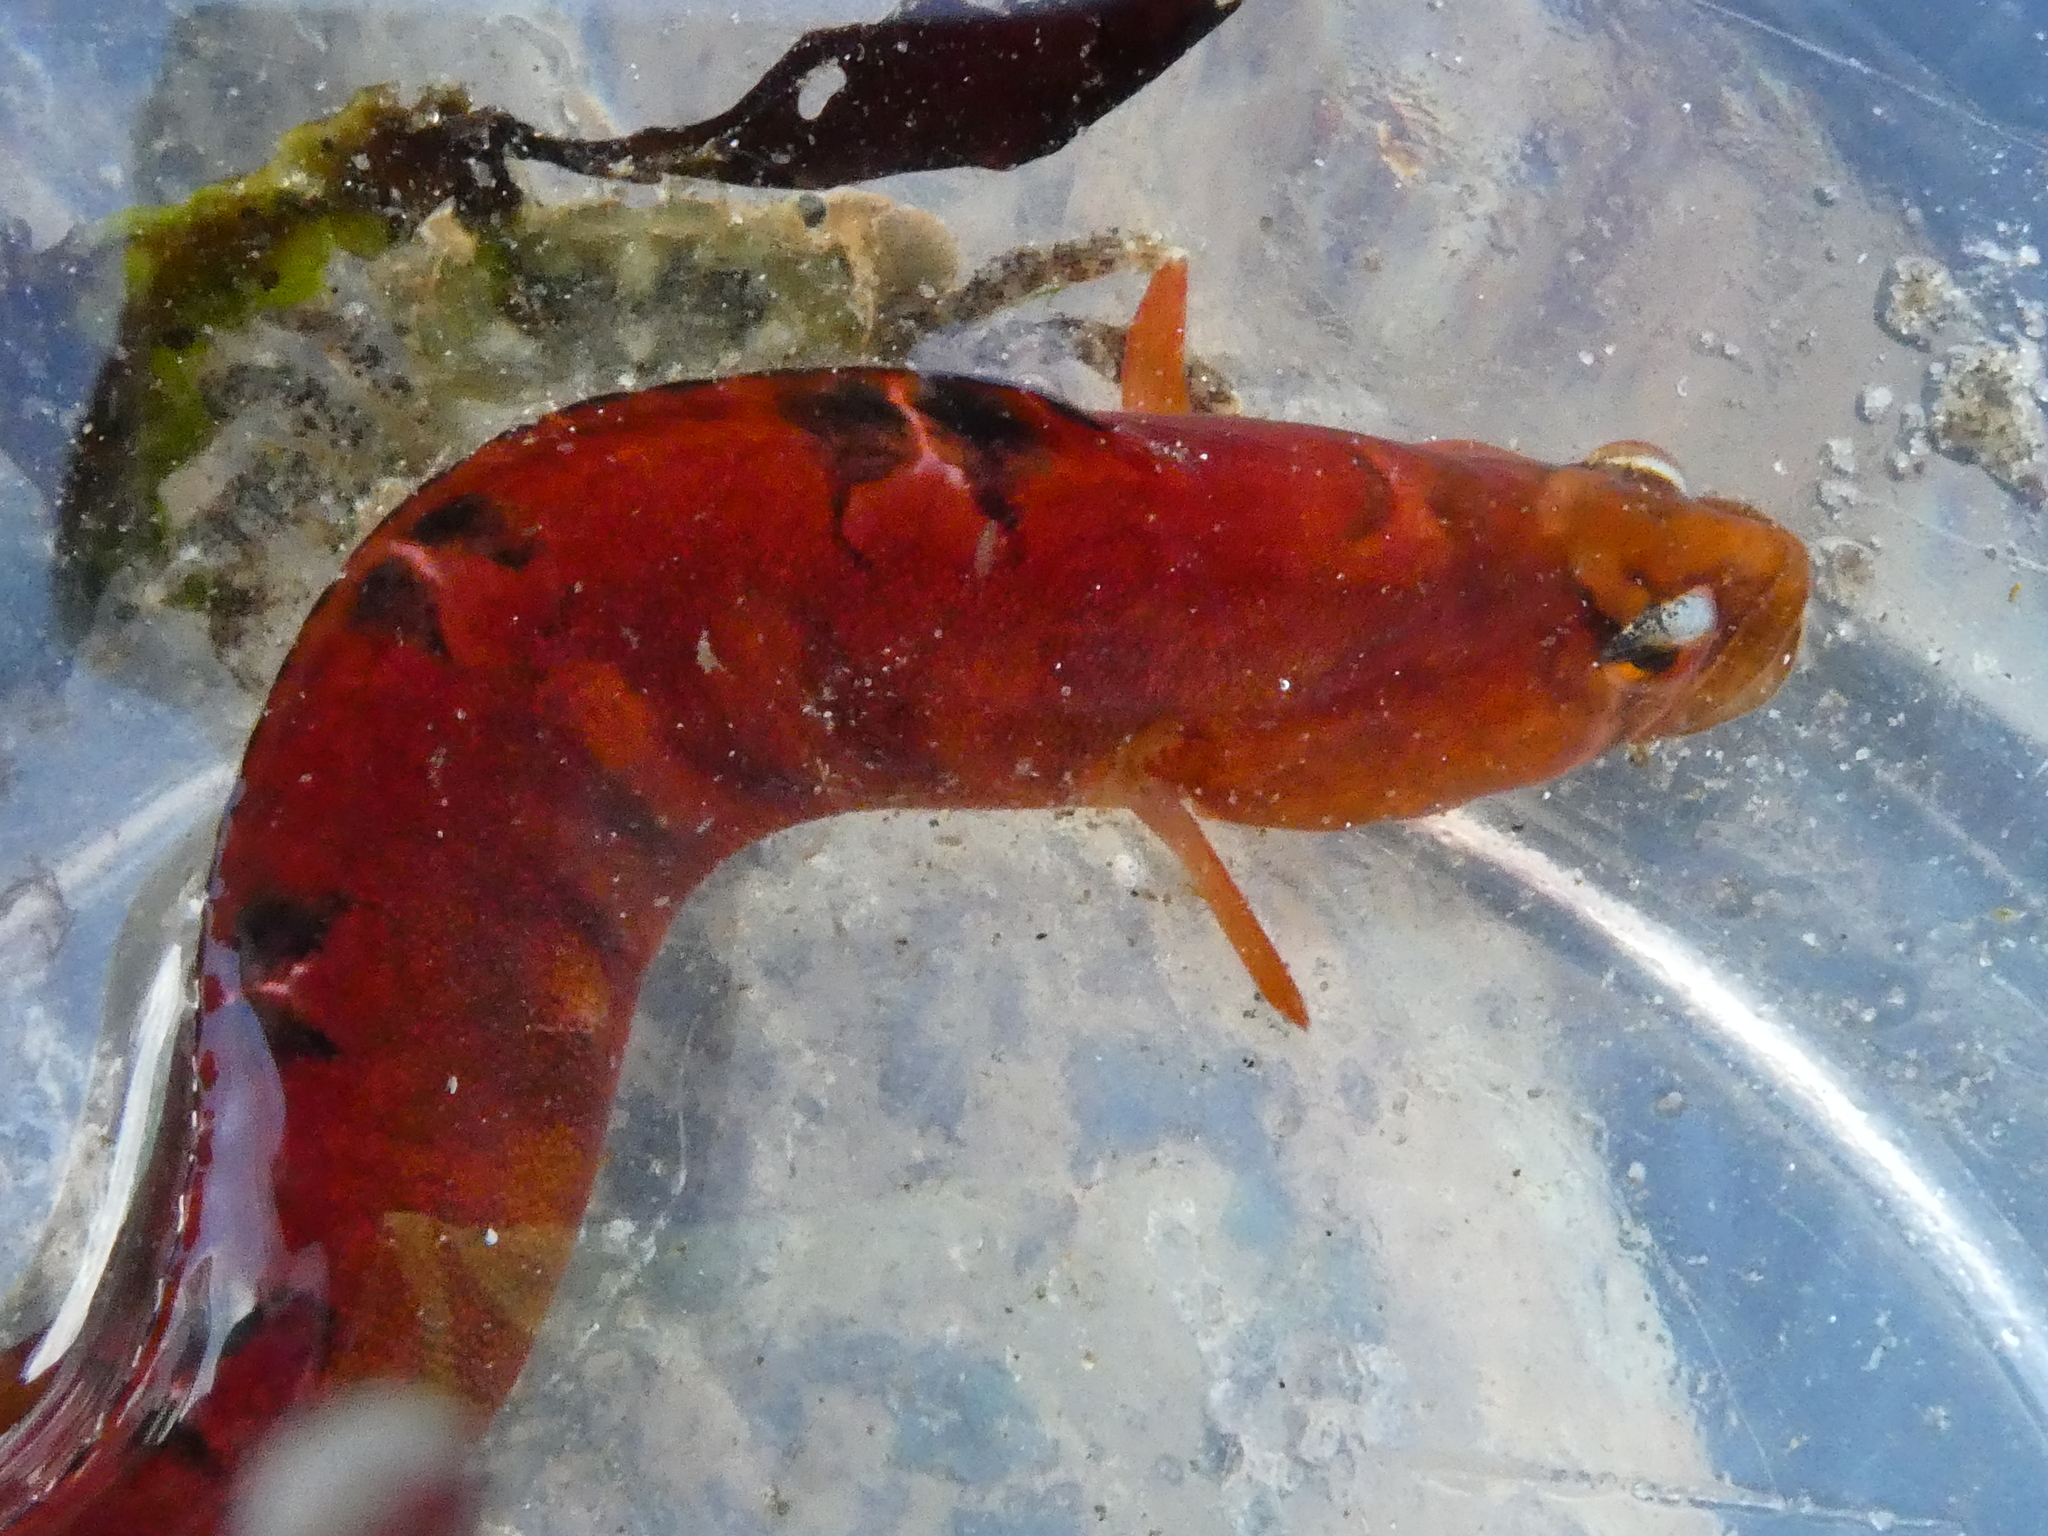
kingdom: Animalia
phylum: Chordata
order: Perciformes
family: Pholidae
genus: Pholis
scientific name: Pholis laeta
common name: Crescent gunnel
